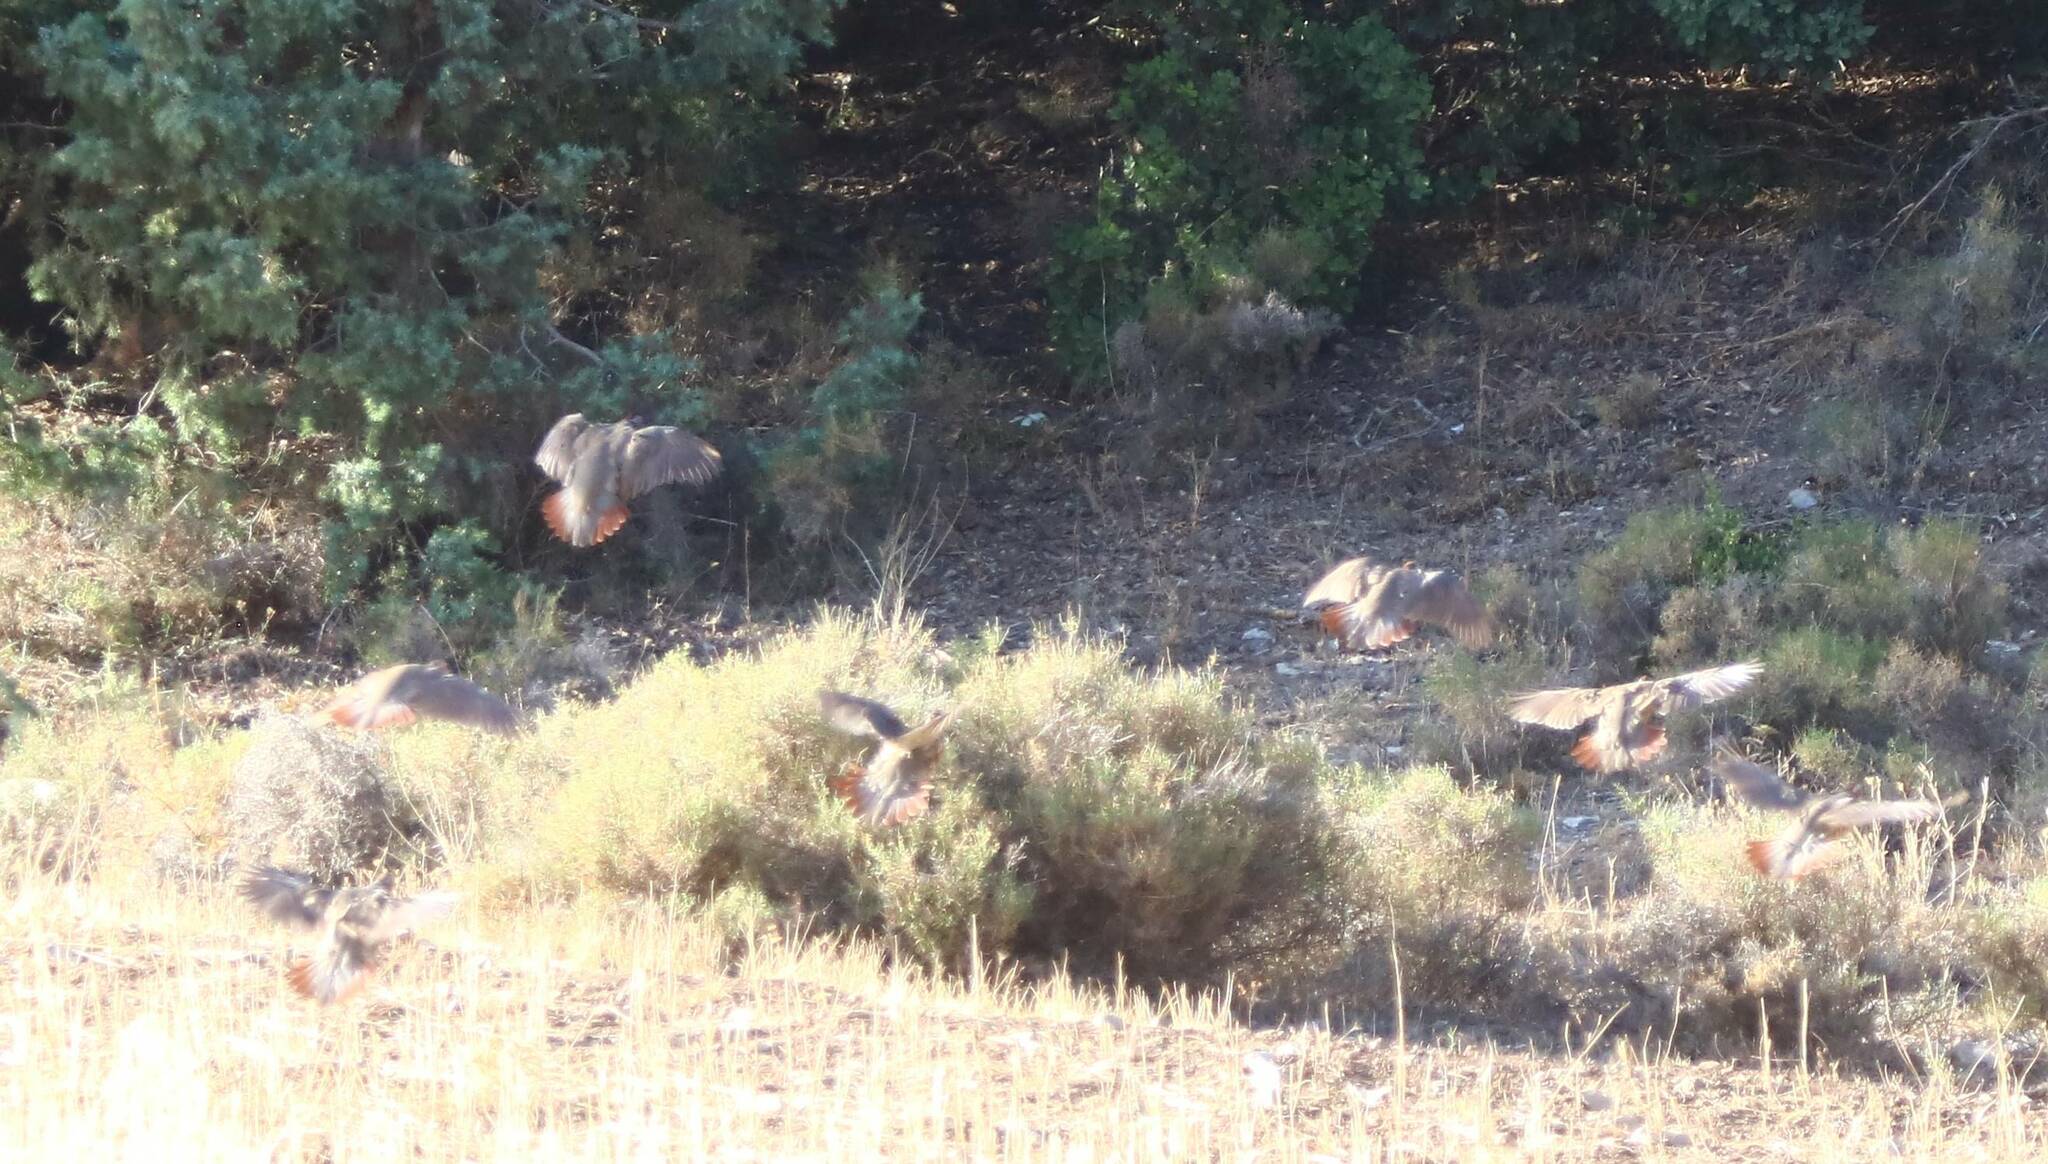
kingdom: Animalia
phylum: Chordata
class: Aves
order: Galliformes
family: Phasianidae
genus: Alectoris
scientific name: Alectoris barbara
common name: Barbary partridge
